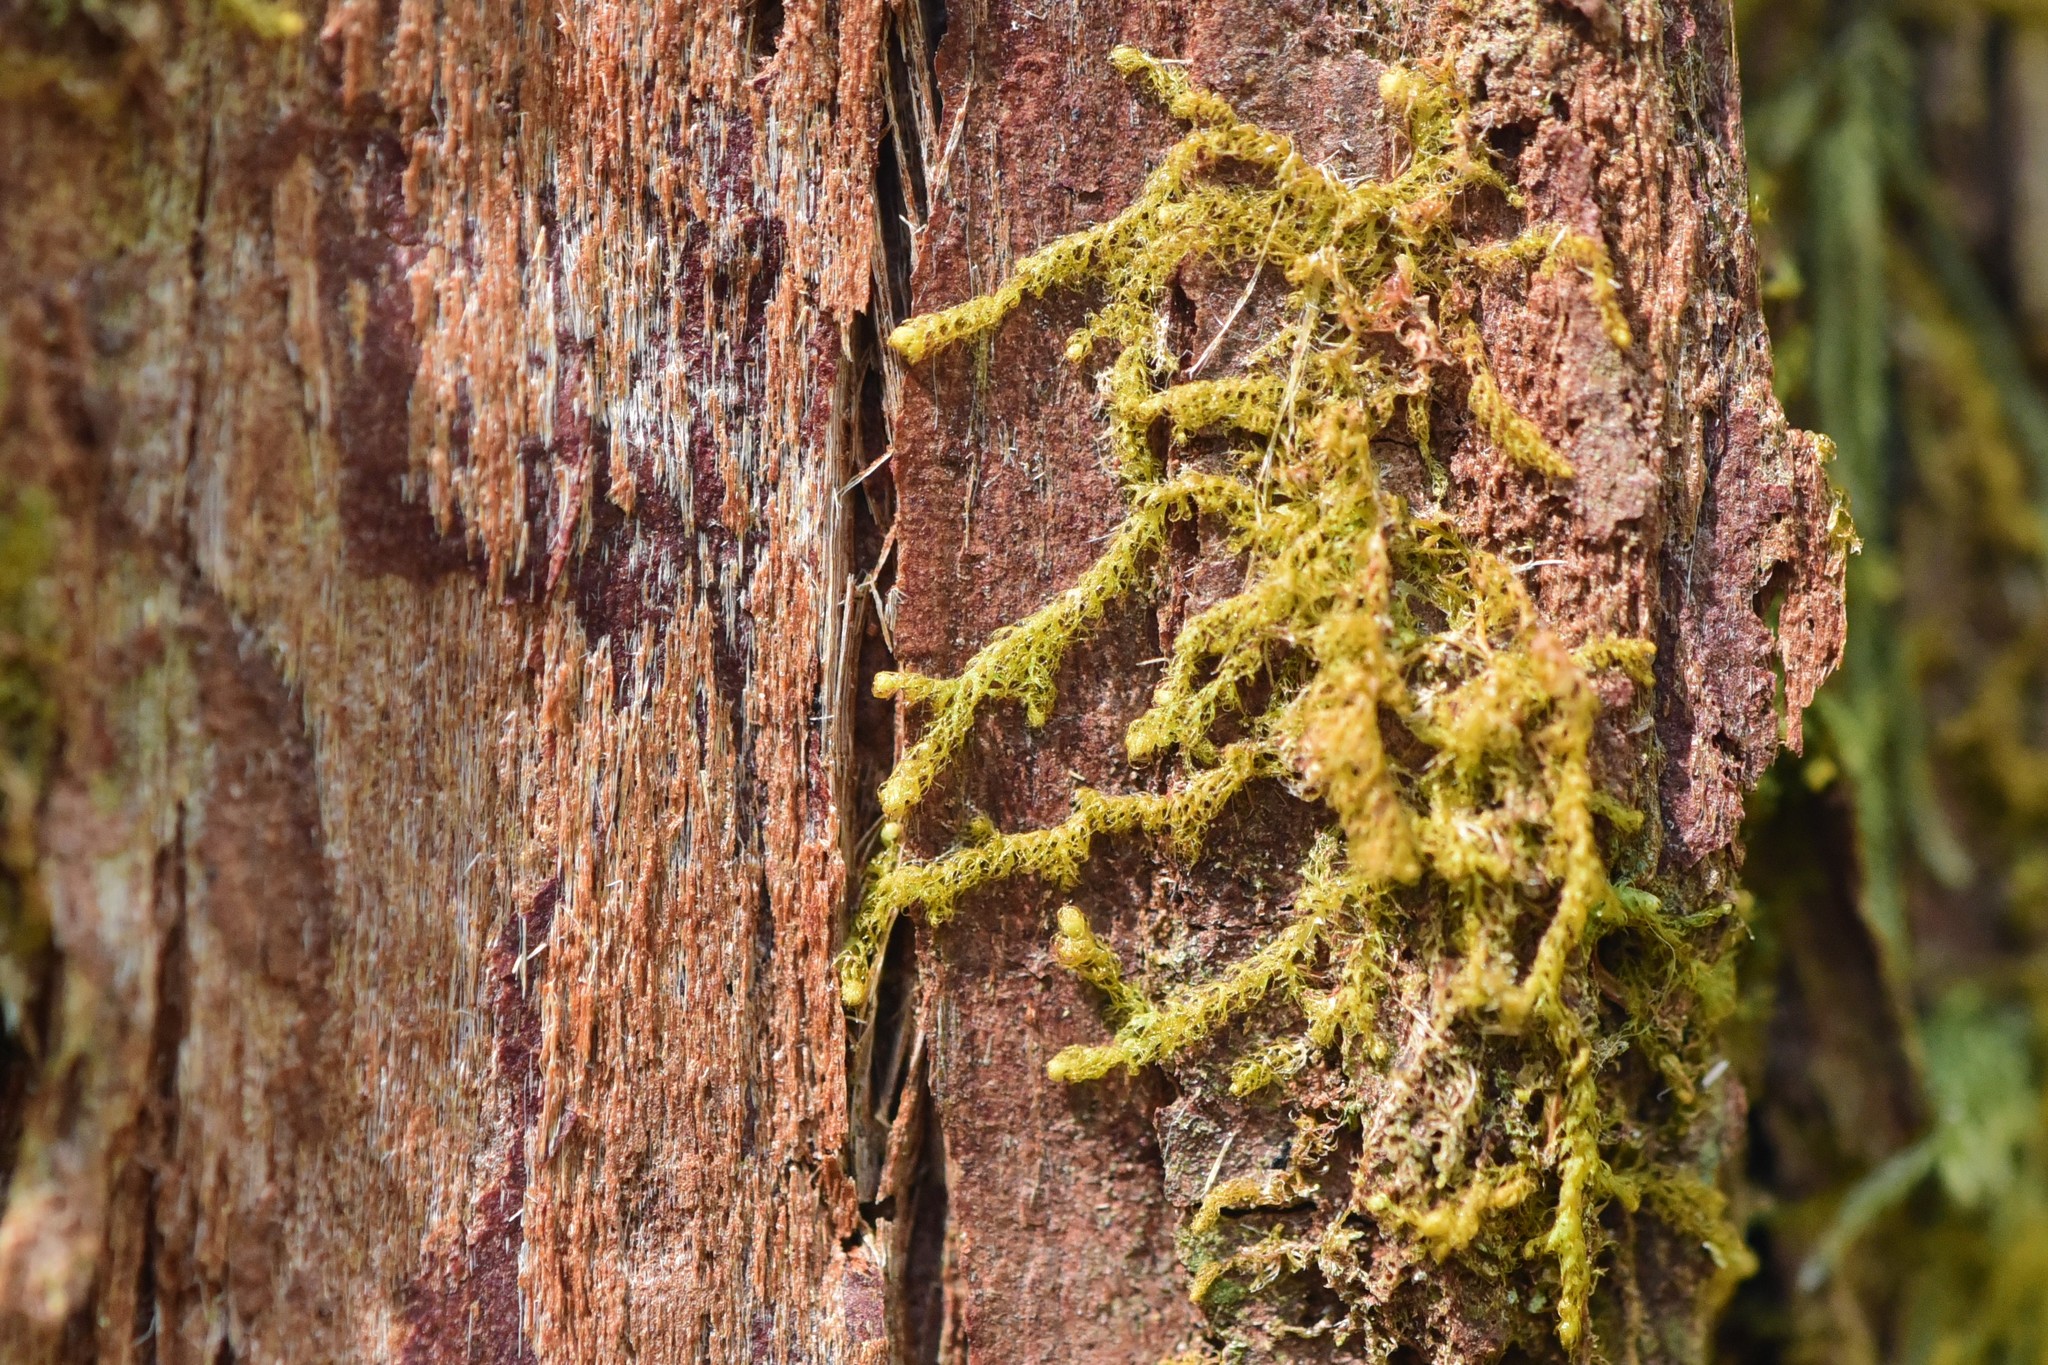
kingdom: Plantae
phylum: Marchantiophyta
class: Jungermanniopsida
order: Ptilidiales
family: Ptilidiaceae
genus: Ptilidium
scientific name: Ptilidium pulcherrimum
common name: Tree fringewort
